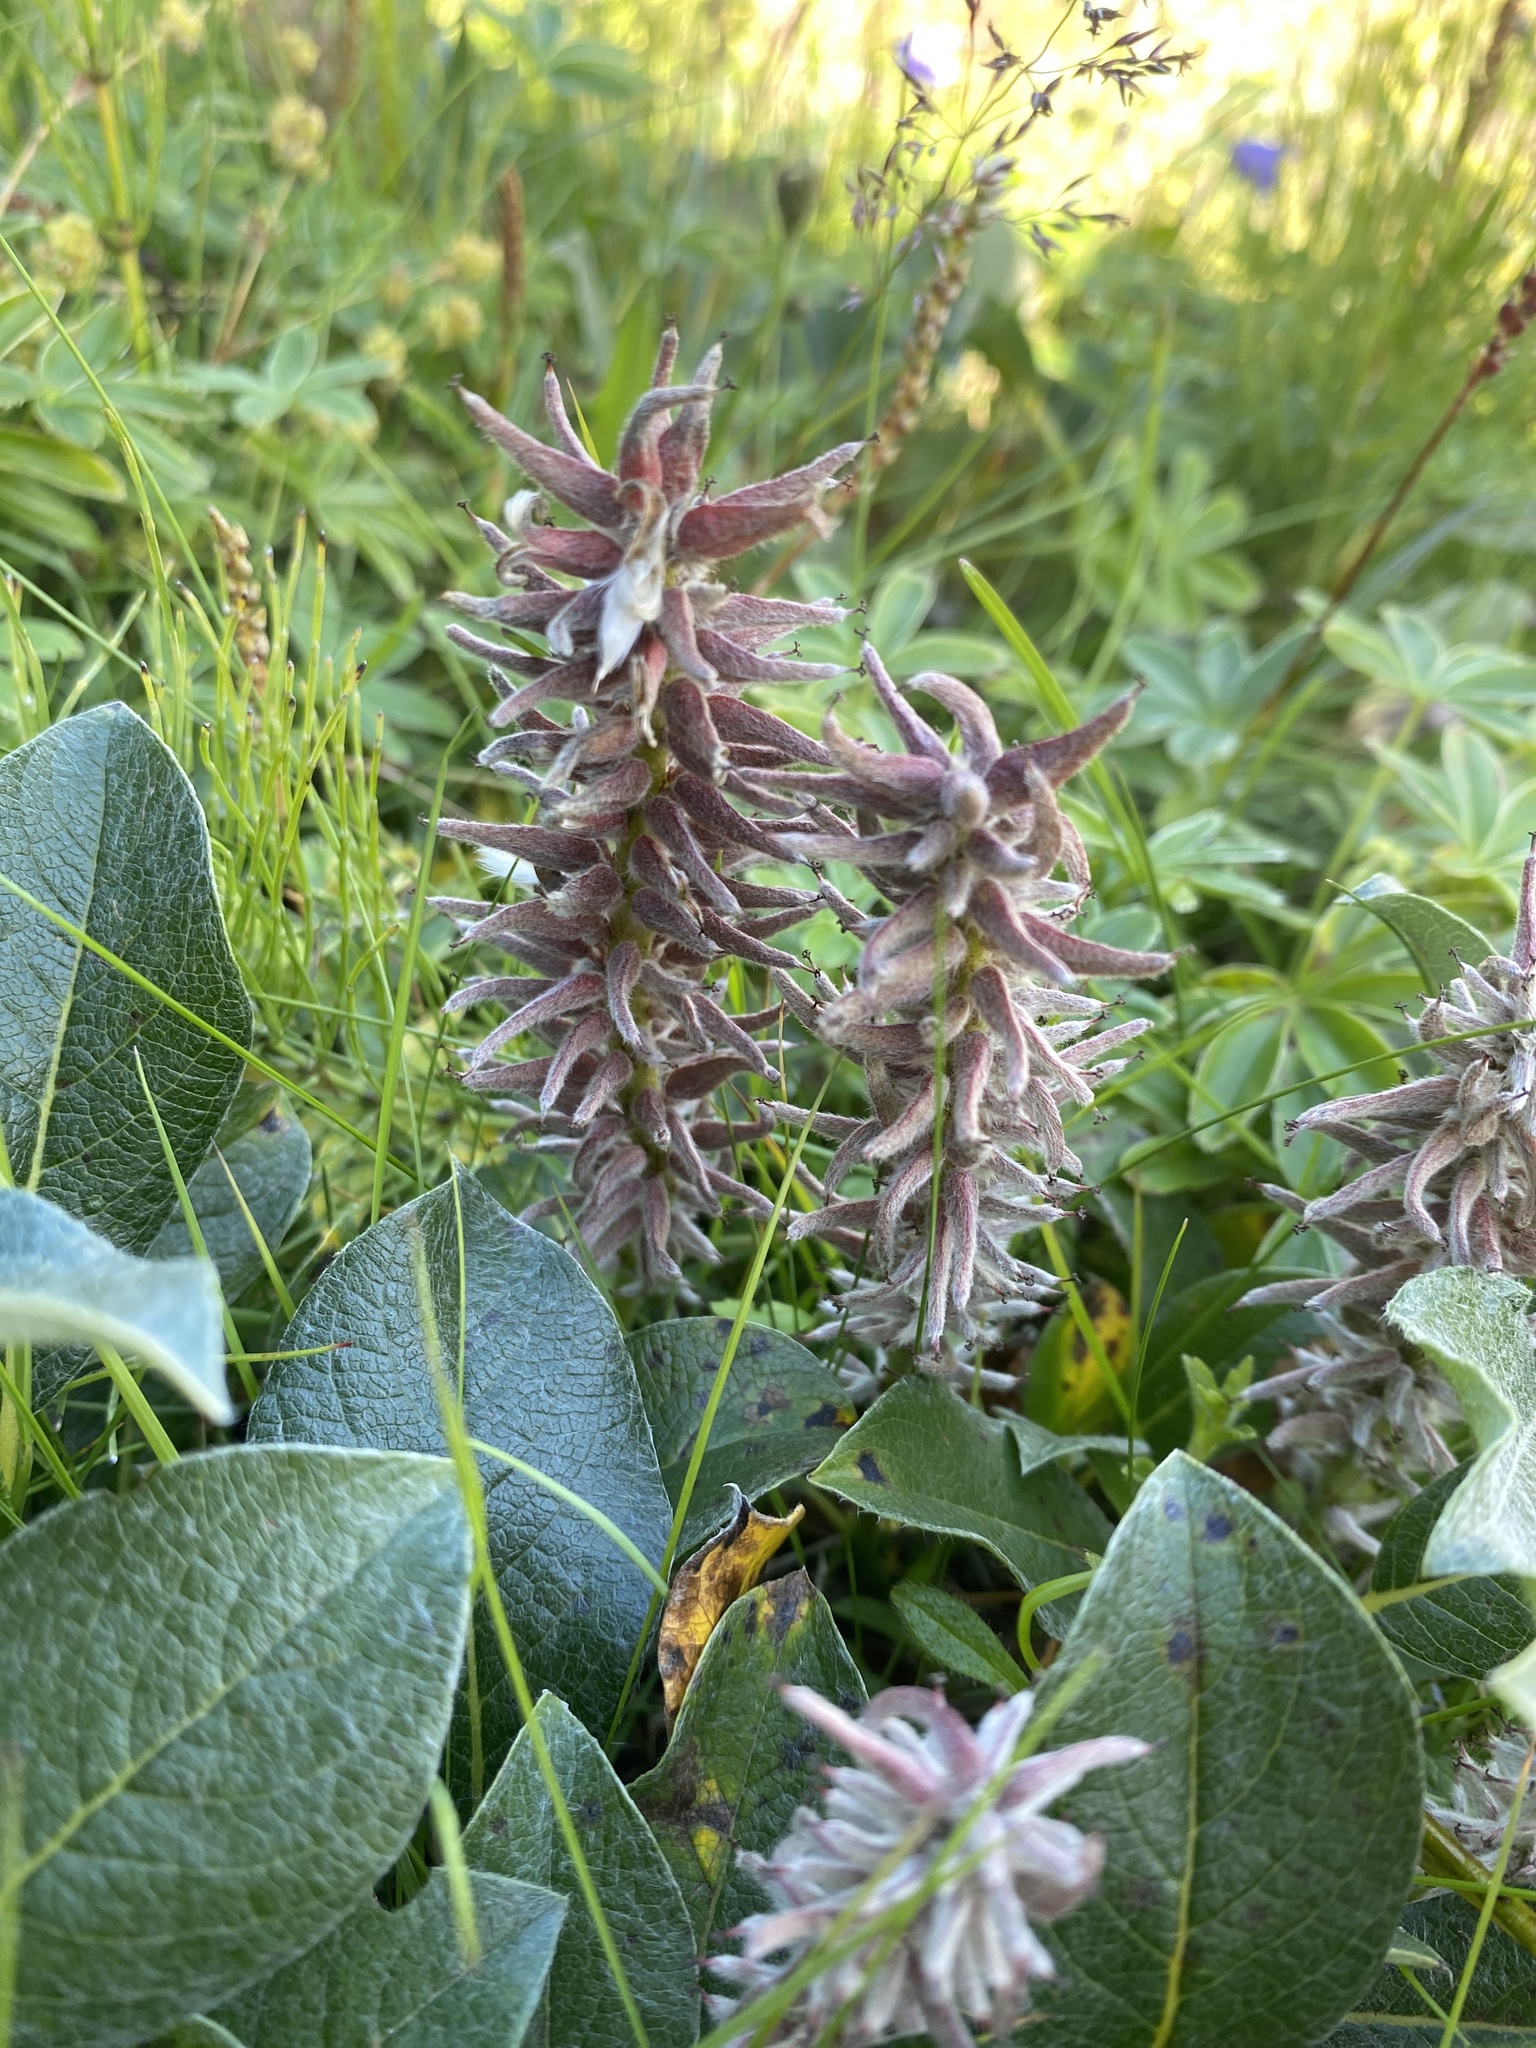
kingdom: Plantae
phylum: Tracheophyta
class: Magnoliopsida
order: Malpighiales
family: Salicaceae
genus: Salix
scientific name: Salix arctica
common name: Arctic willow
